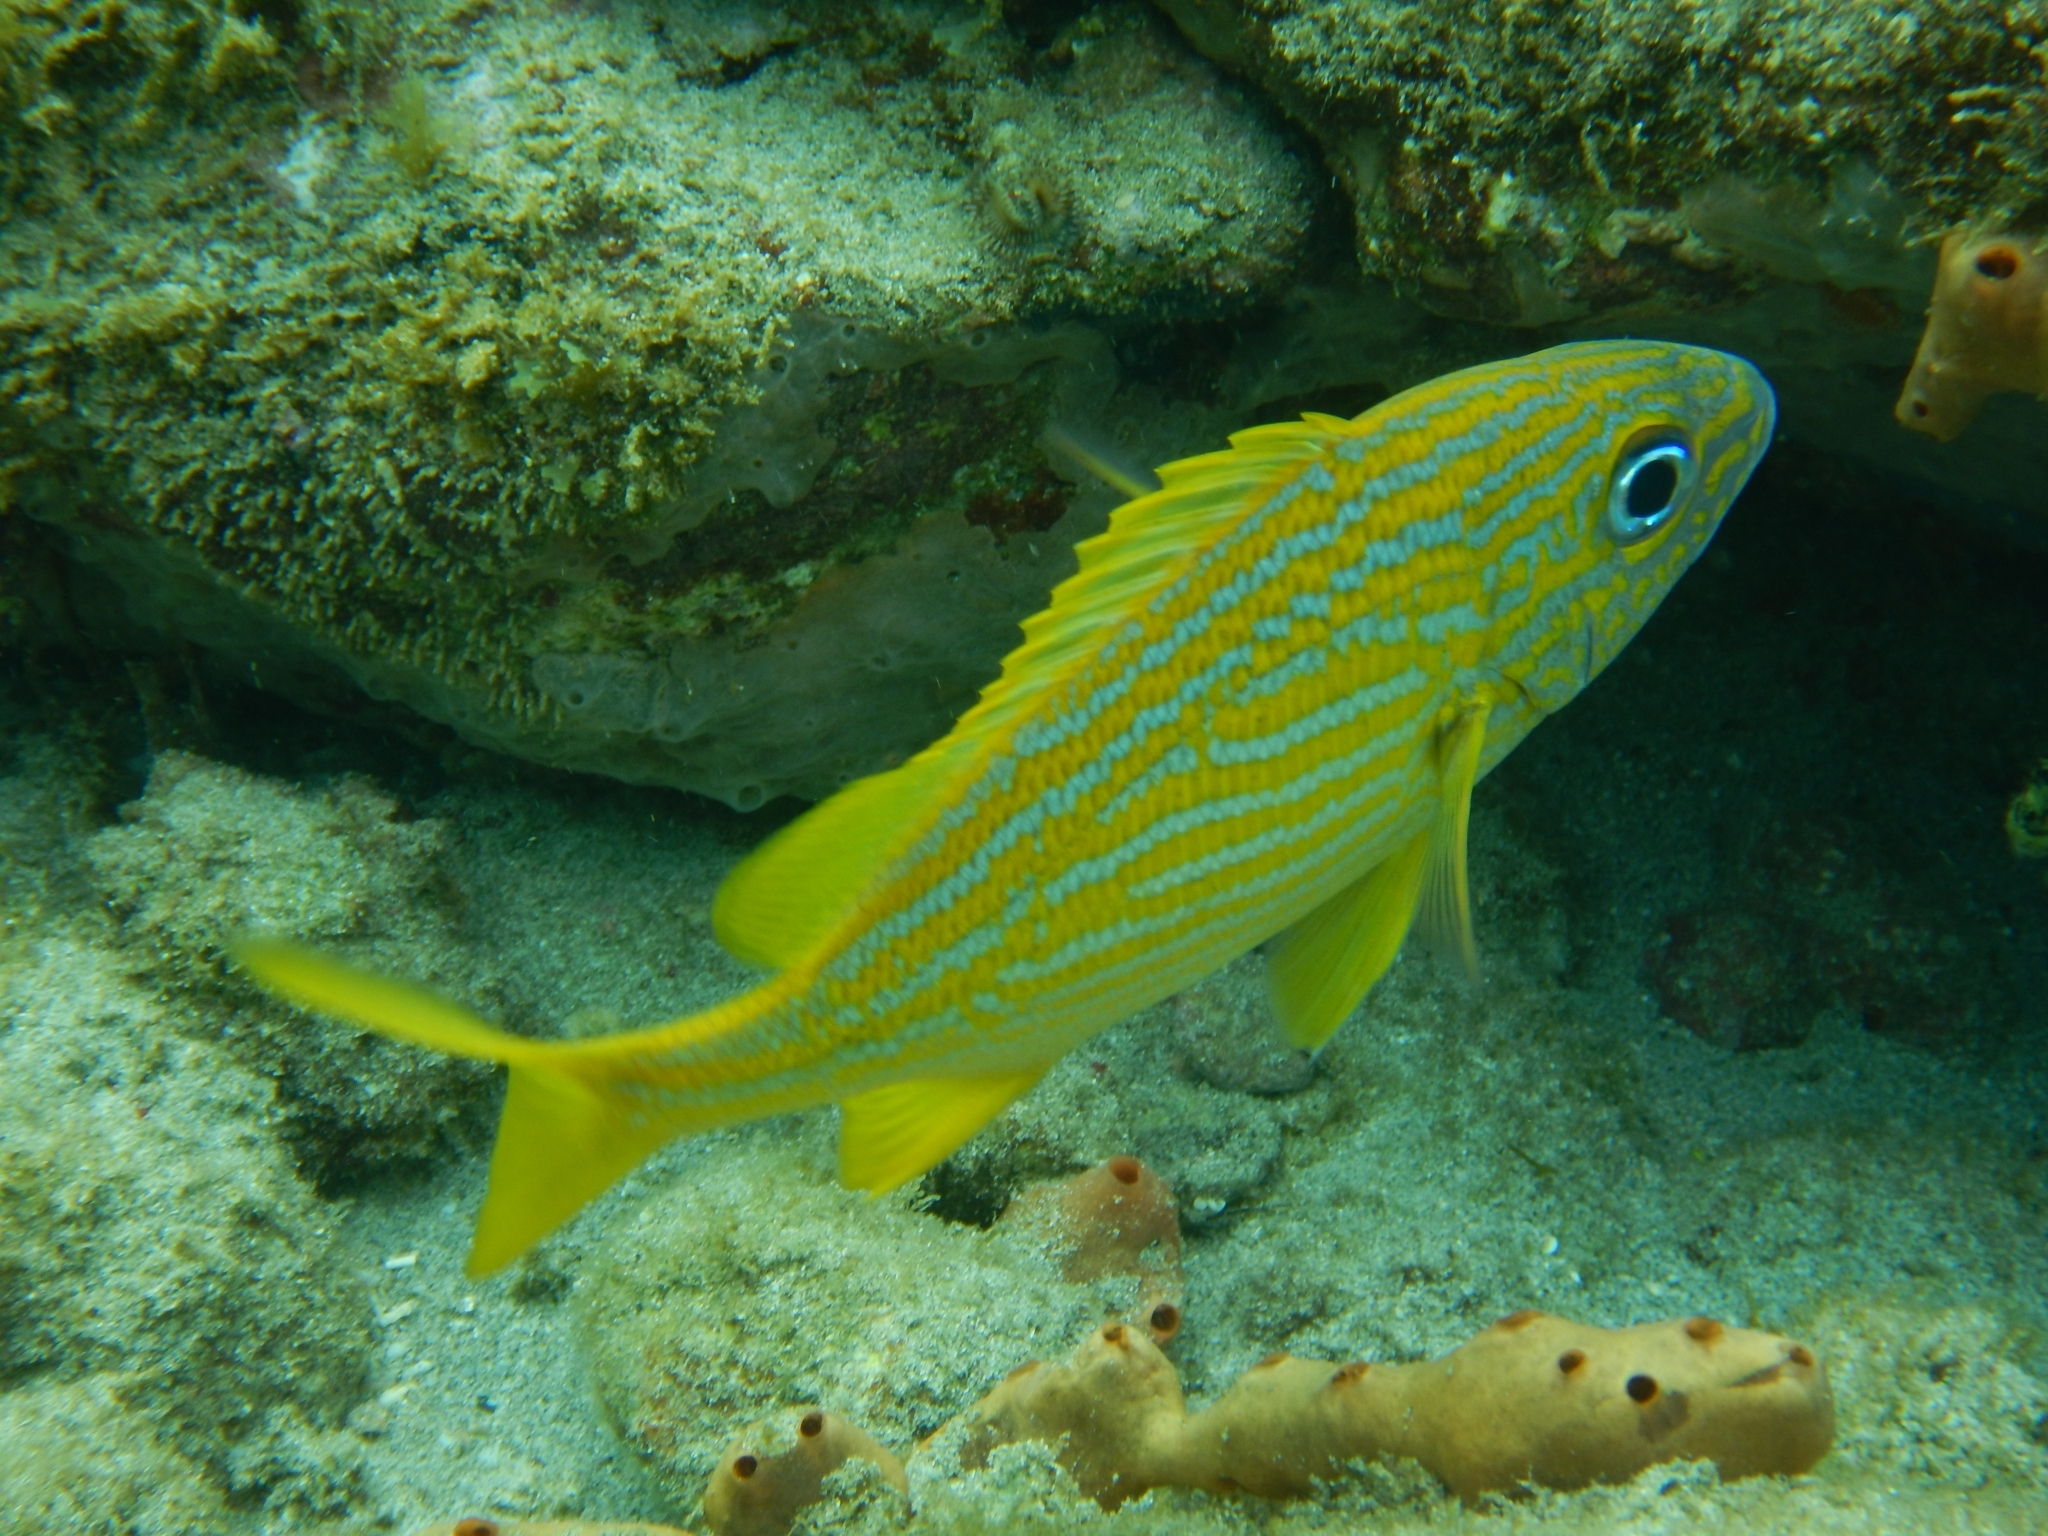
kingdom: Animalia
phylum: Chordata
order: Perciformes
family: Haemulidae
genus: Haemulon
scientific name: Haemulon flavolineatum
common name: French grunt
